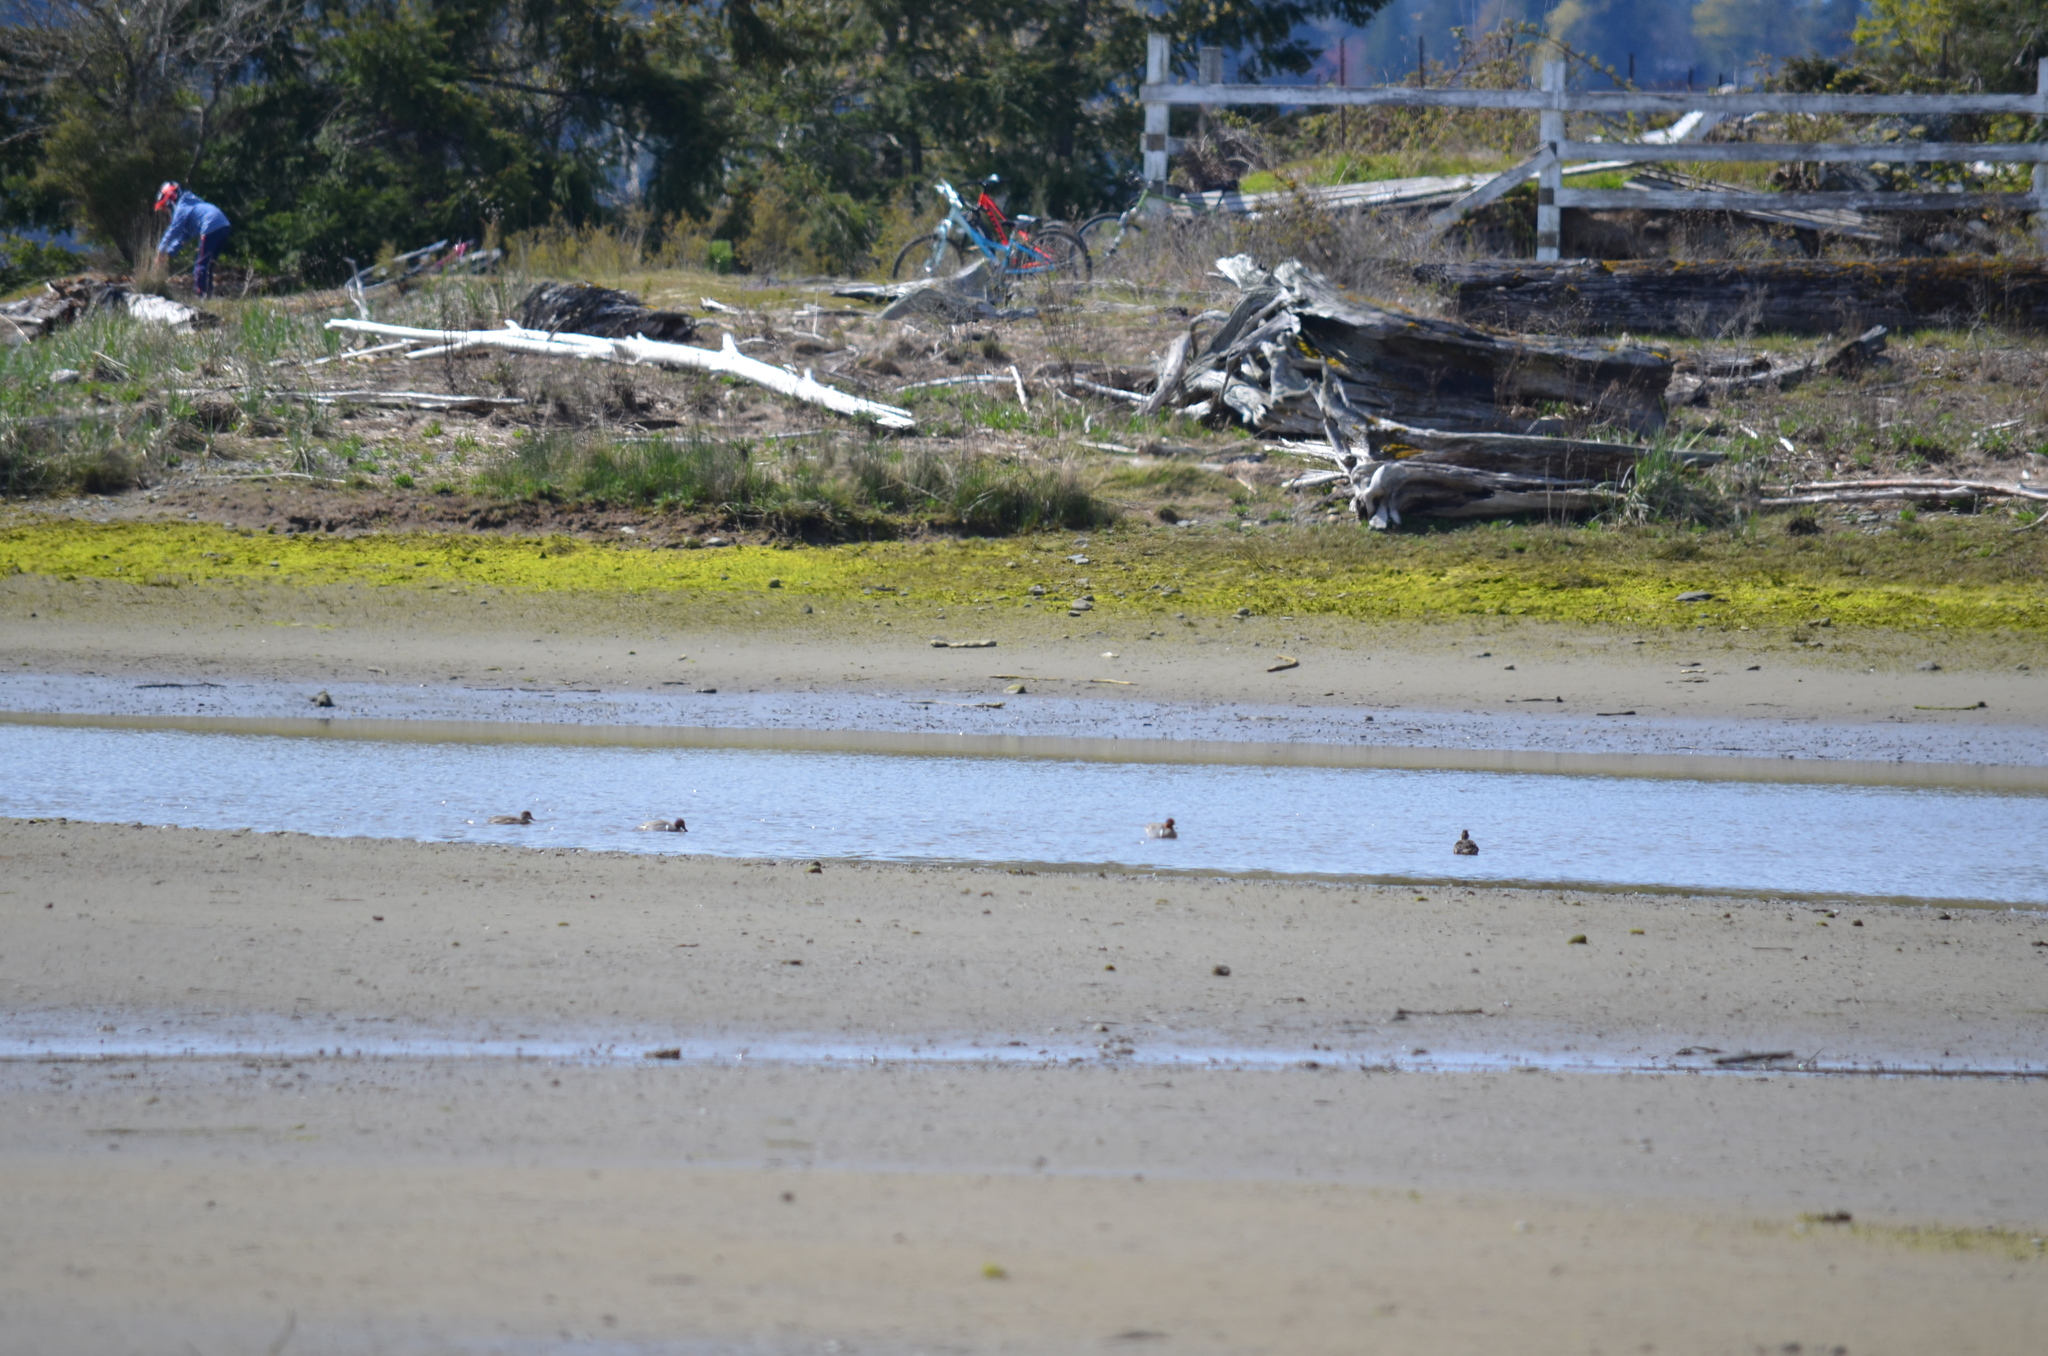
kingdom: Animalia
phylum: Chordata
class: Aves
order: Anseriformes
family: Anatidae
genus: Anas
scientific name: Anas crecca
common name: Eurasian teal
